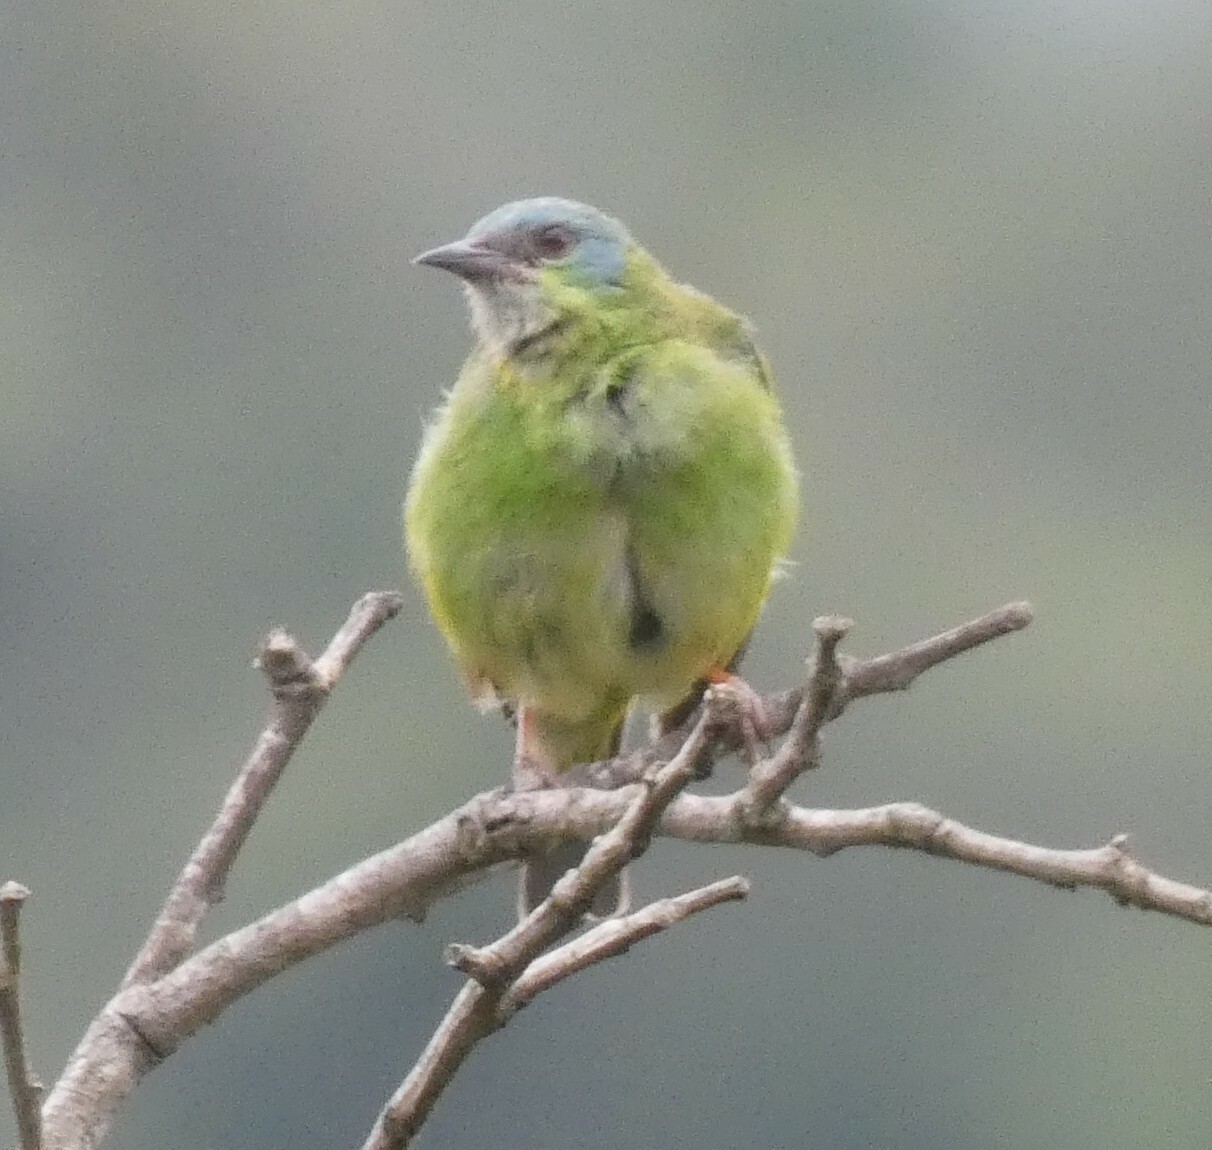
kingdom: Animalia
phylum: Chordata
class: Aves
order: Passeriformes
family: Thraupidae
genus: Dacnis
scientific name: Dacnis cayana
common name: Blue dacnis
